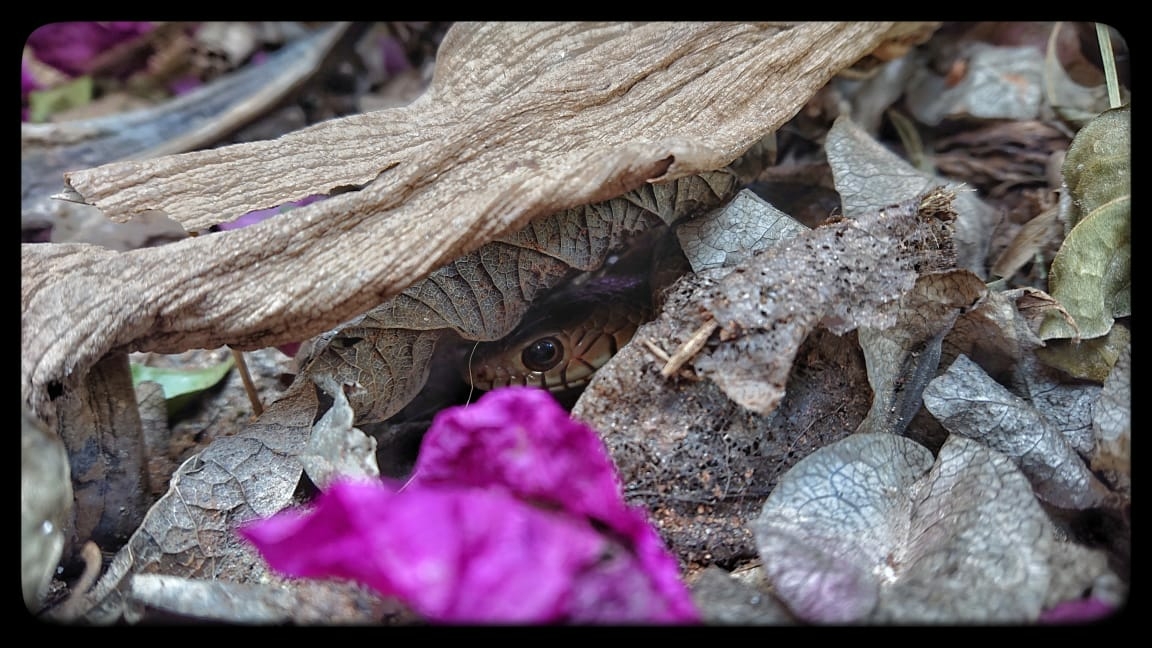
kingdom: Animalia
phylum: Chordata
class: Squamata
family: Colubridae
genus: Ptyas
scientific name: Ptyas mucosa
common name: Oriental ratsnake
